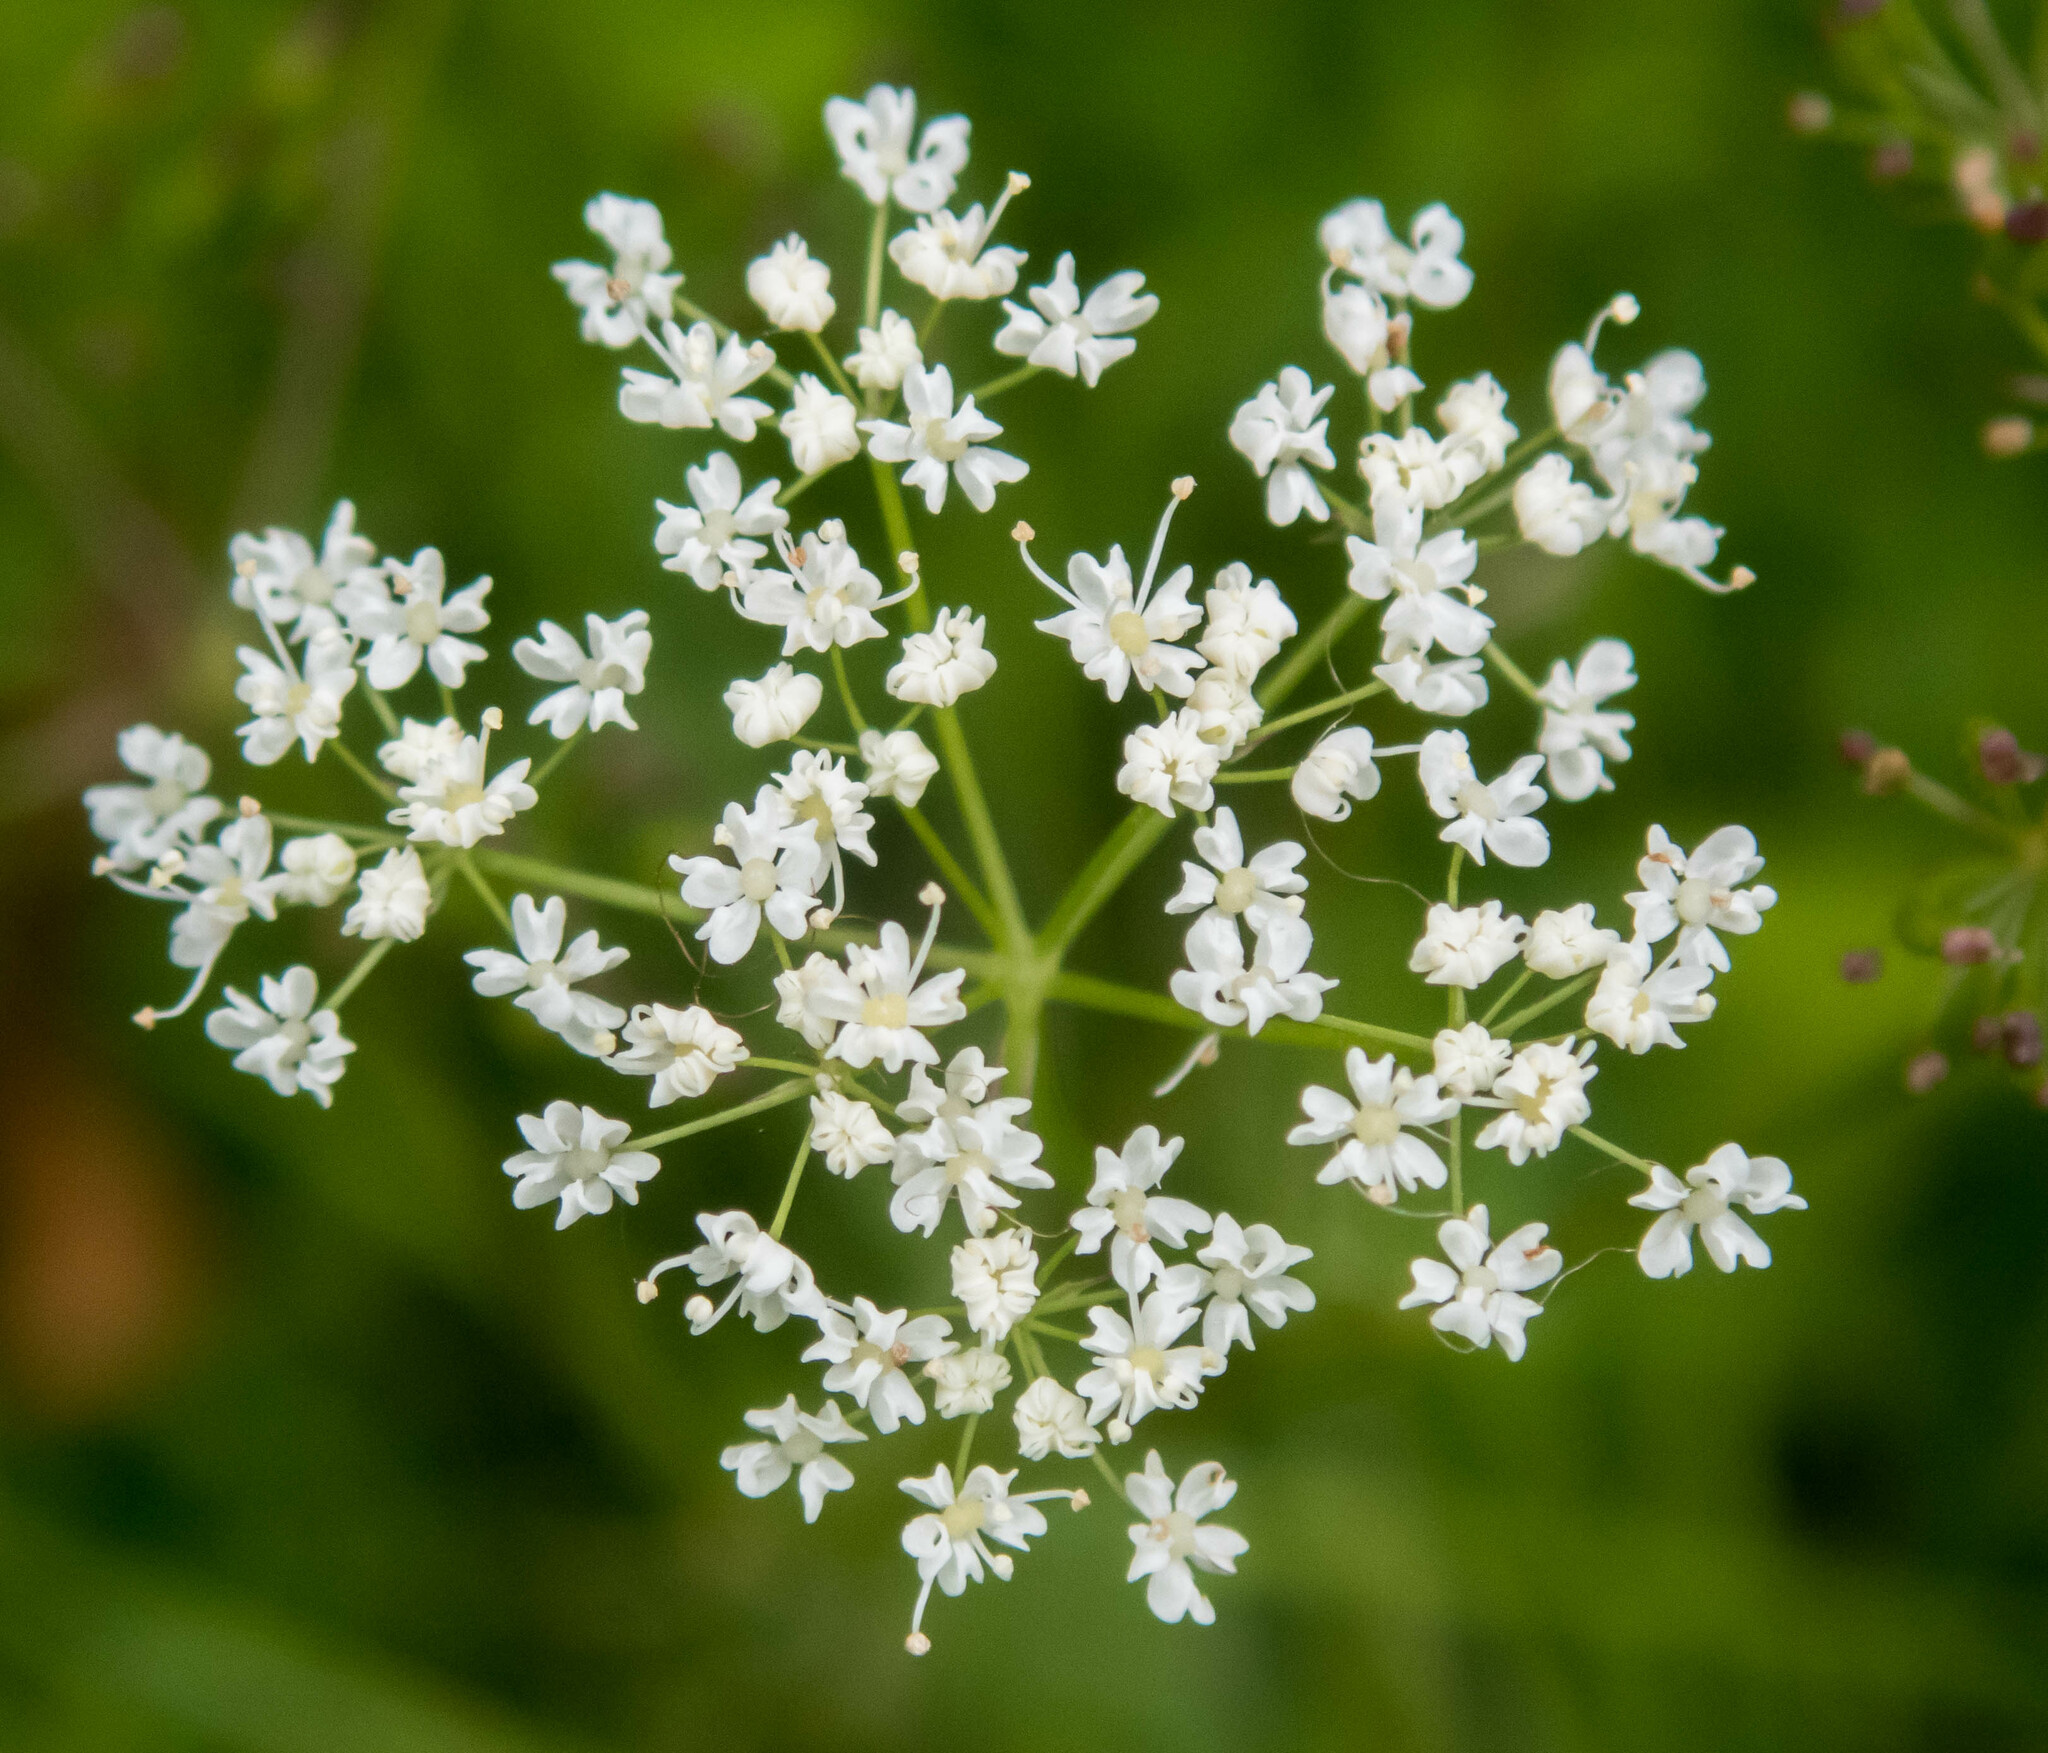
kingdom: Plantae
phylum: Tracheophyta
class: Magnoliopsida
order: Apiales
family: Apiaceae
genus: Conopodium
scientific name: Conopodium majus
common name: Pignut
